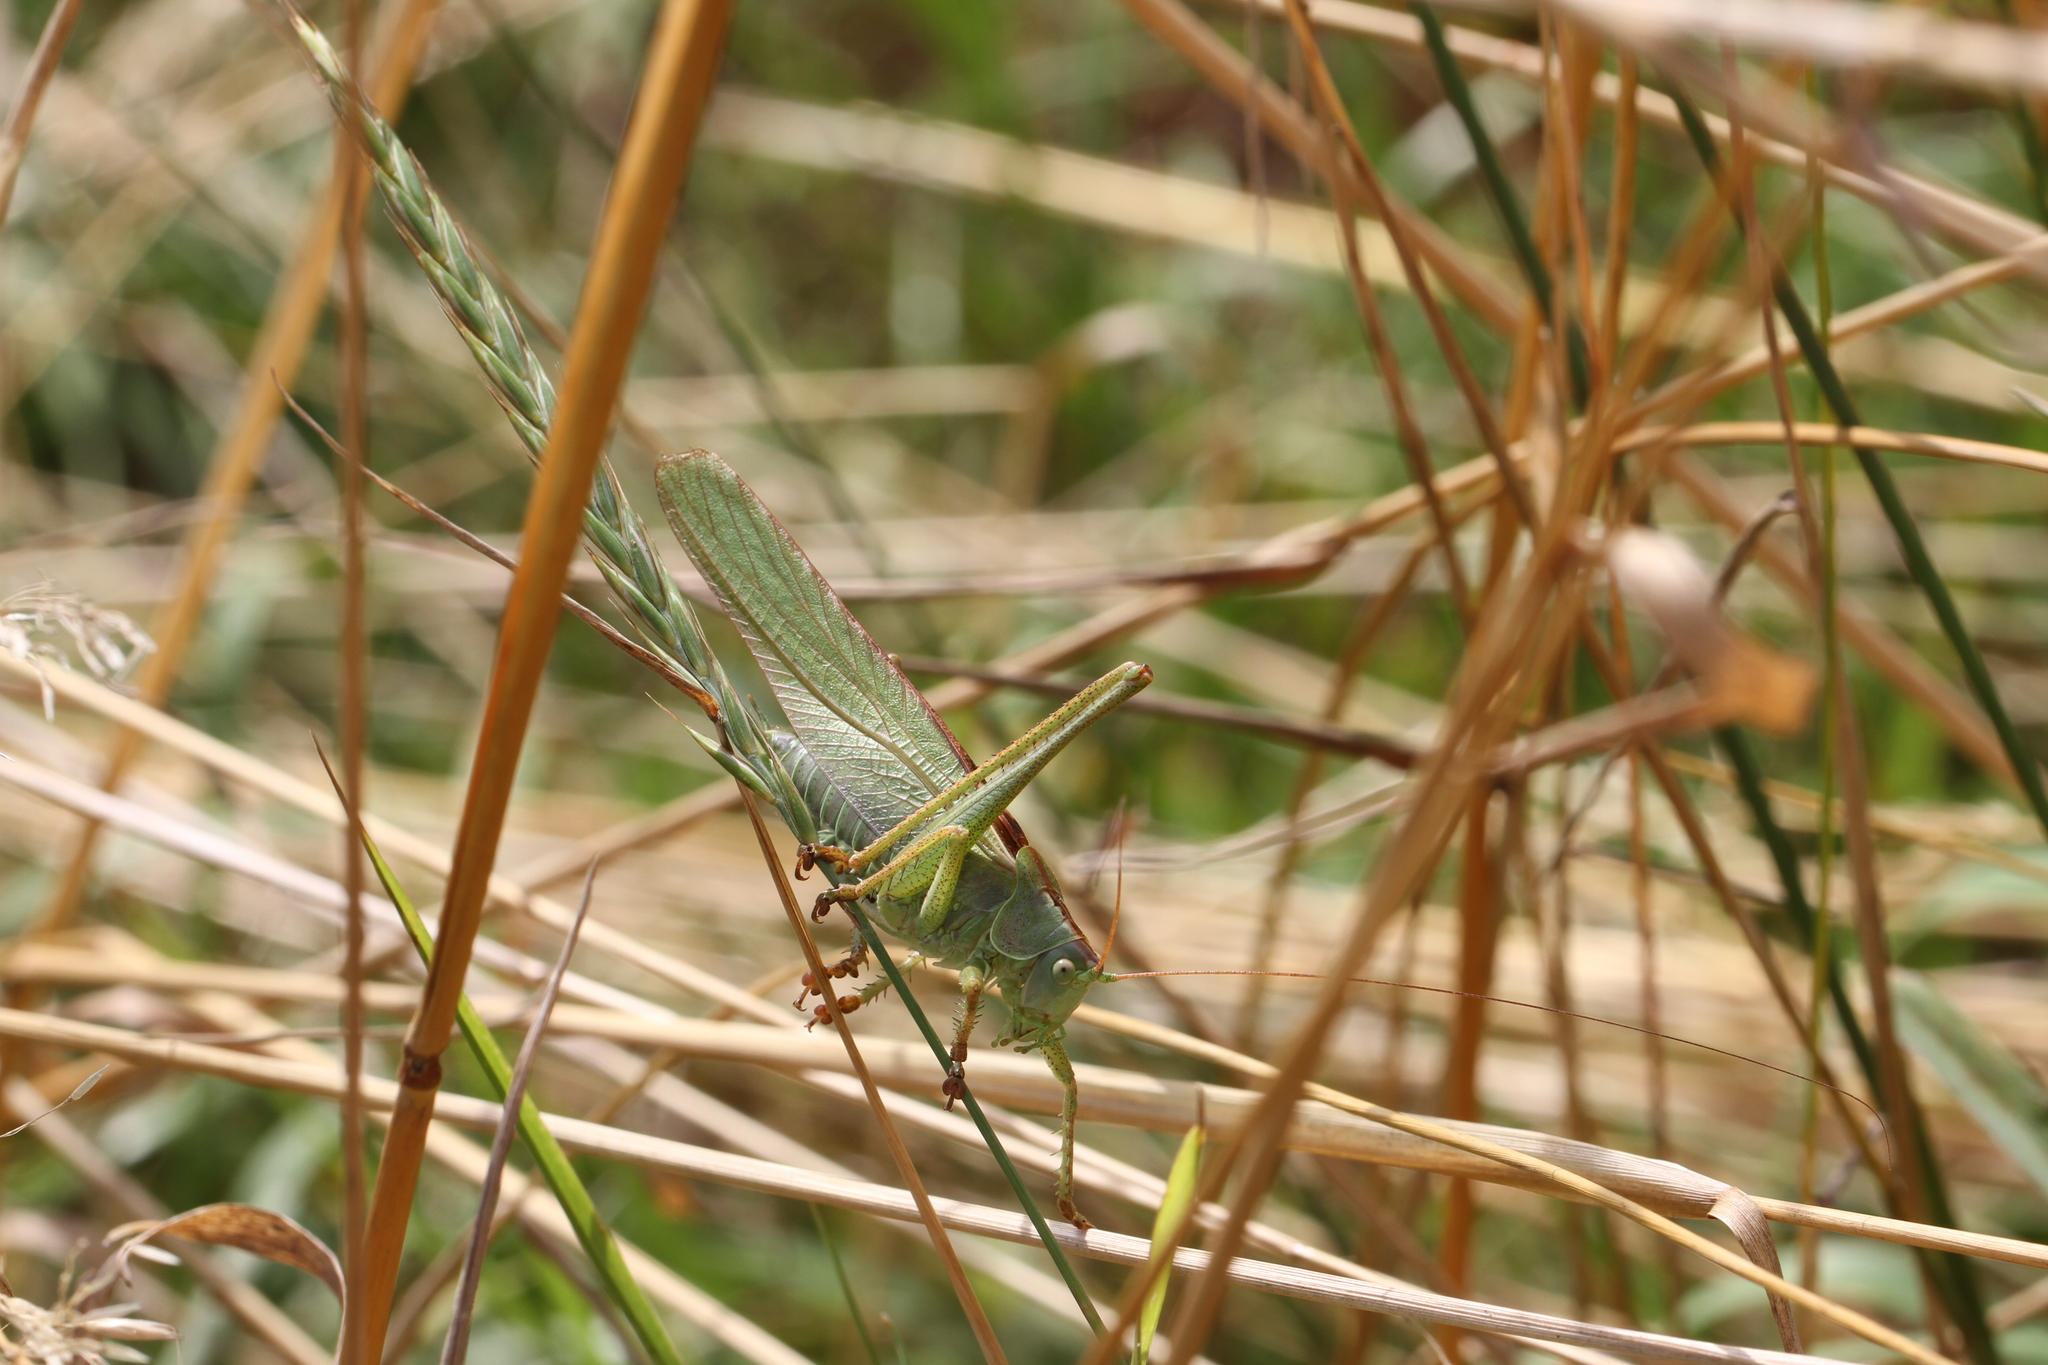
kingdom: Animalia
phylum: Arthropoda
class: Insecta
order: Orthoptera
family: Tettigoniidae
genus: Tettigonia
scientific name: Tettigonia viridissima
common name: Great green bush-cricket
